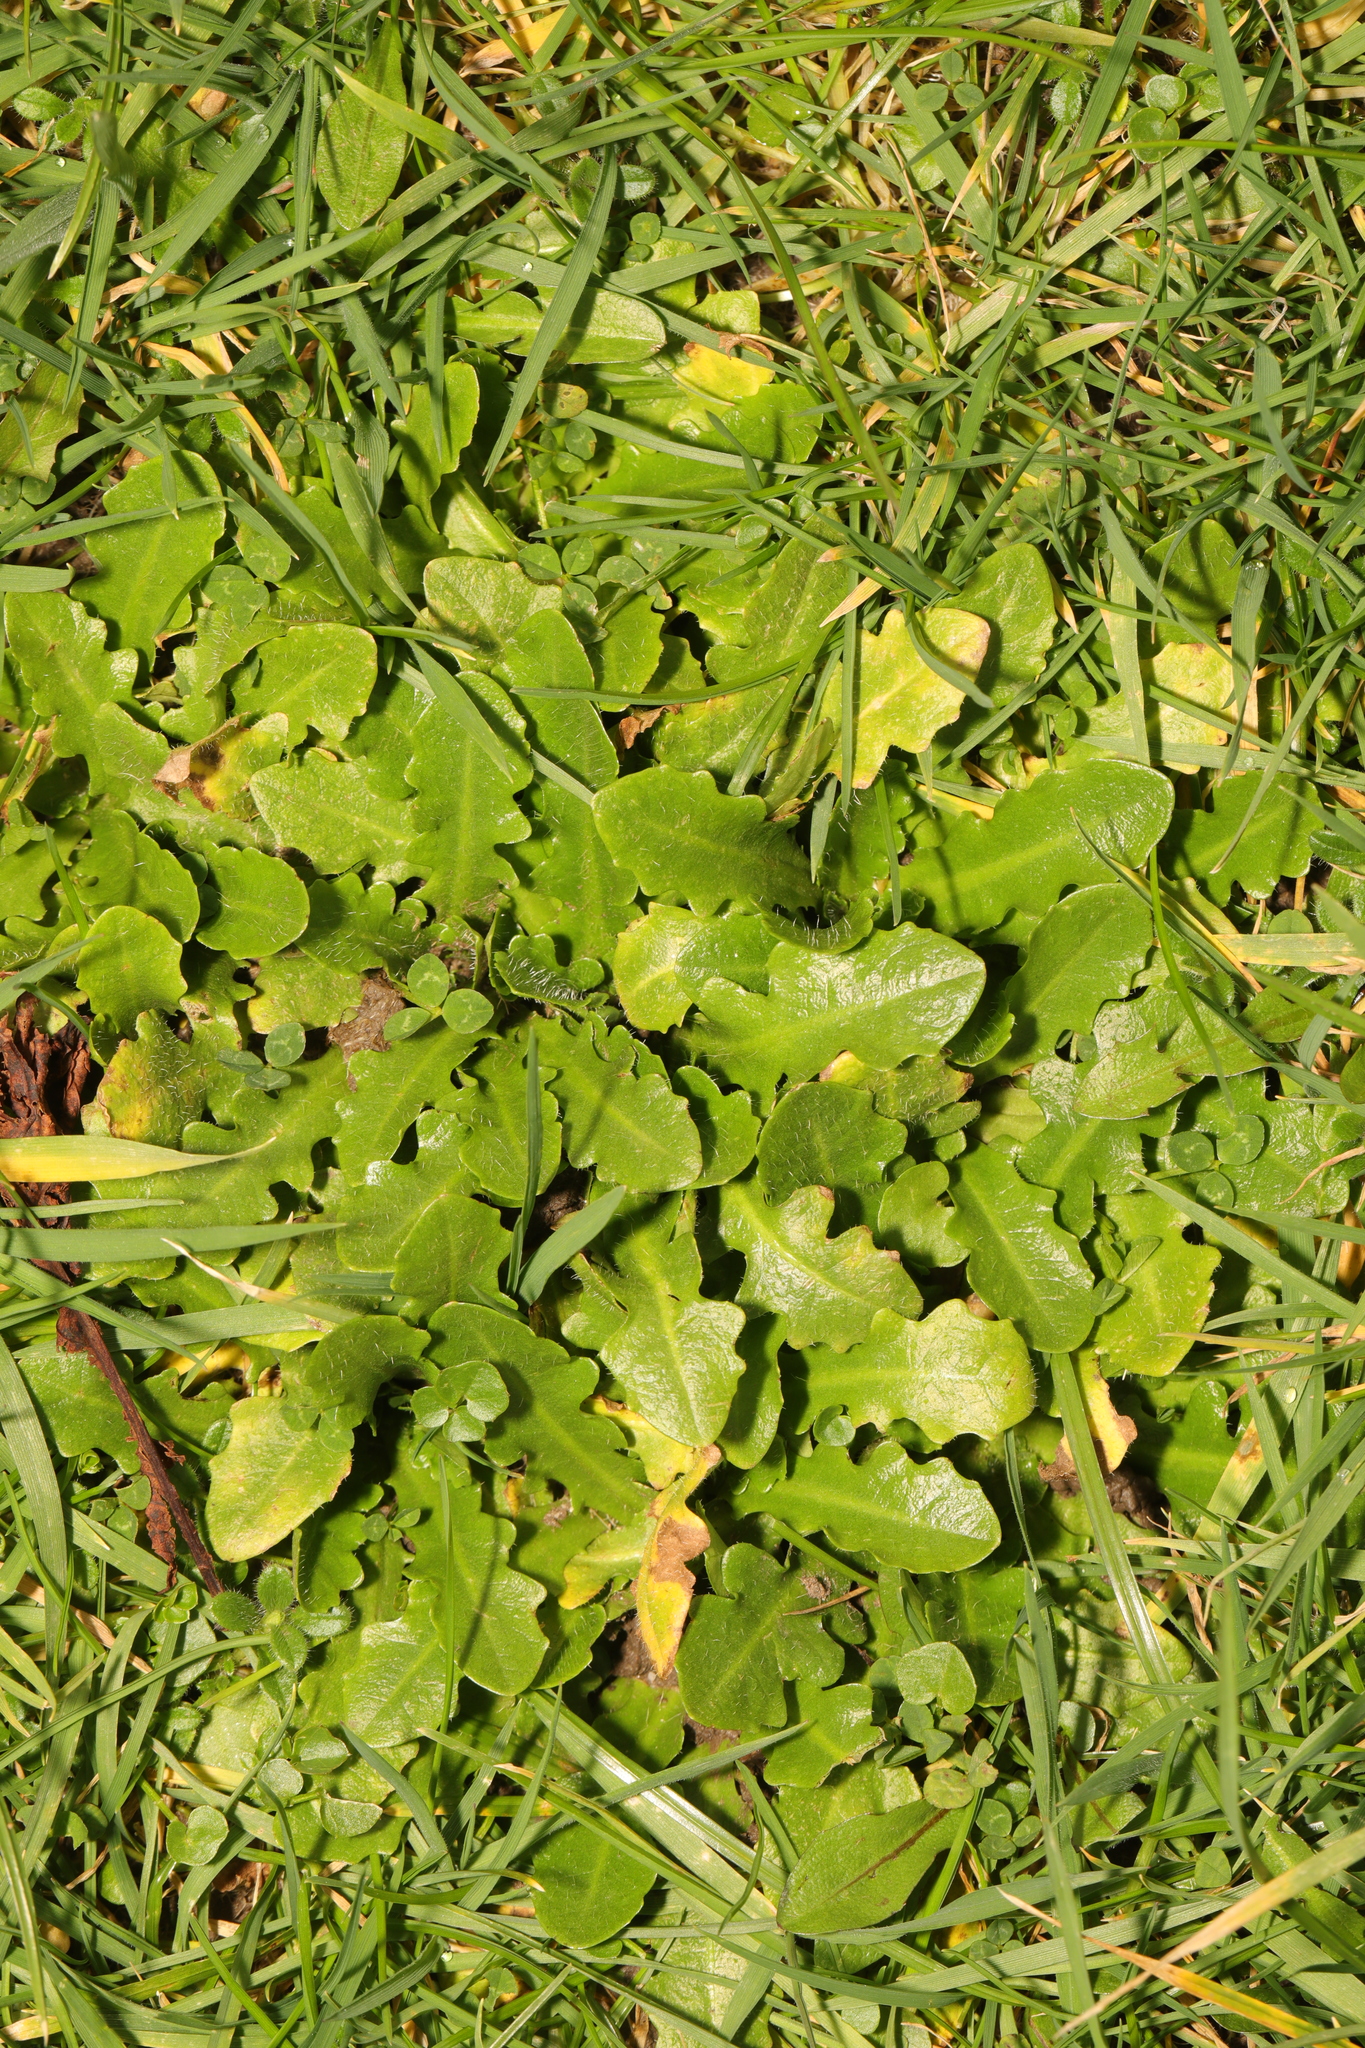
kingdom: Plantae
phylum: Tracheophyta
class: Magnoliopsida
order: Asterales
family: Asteraceae
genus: Hypochaeris
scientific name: Hypochaeris radicata
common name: Flatweed
